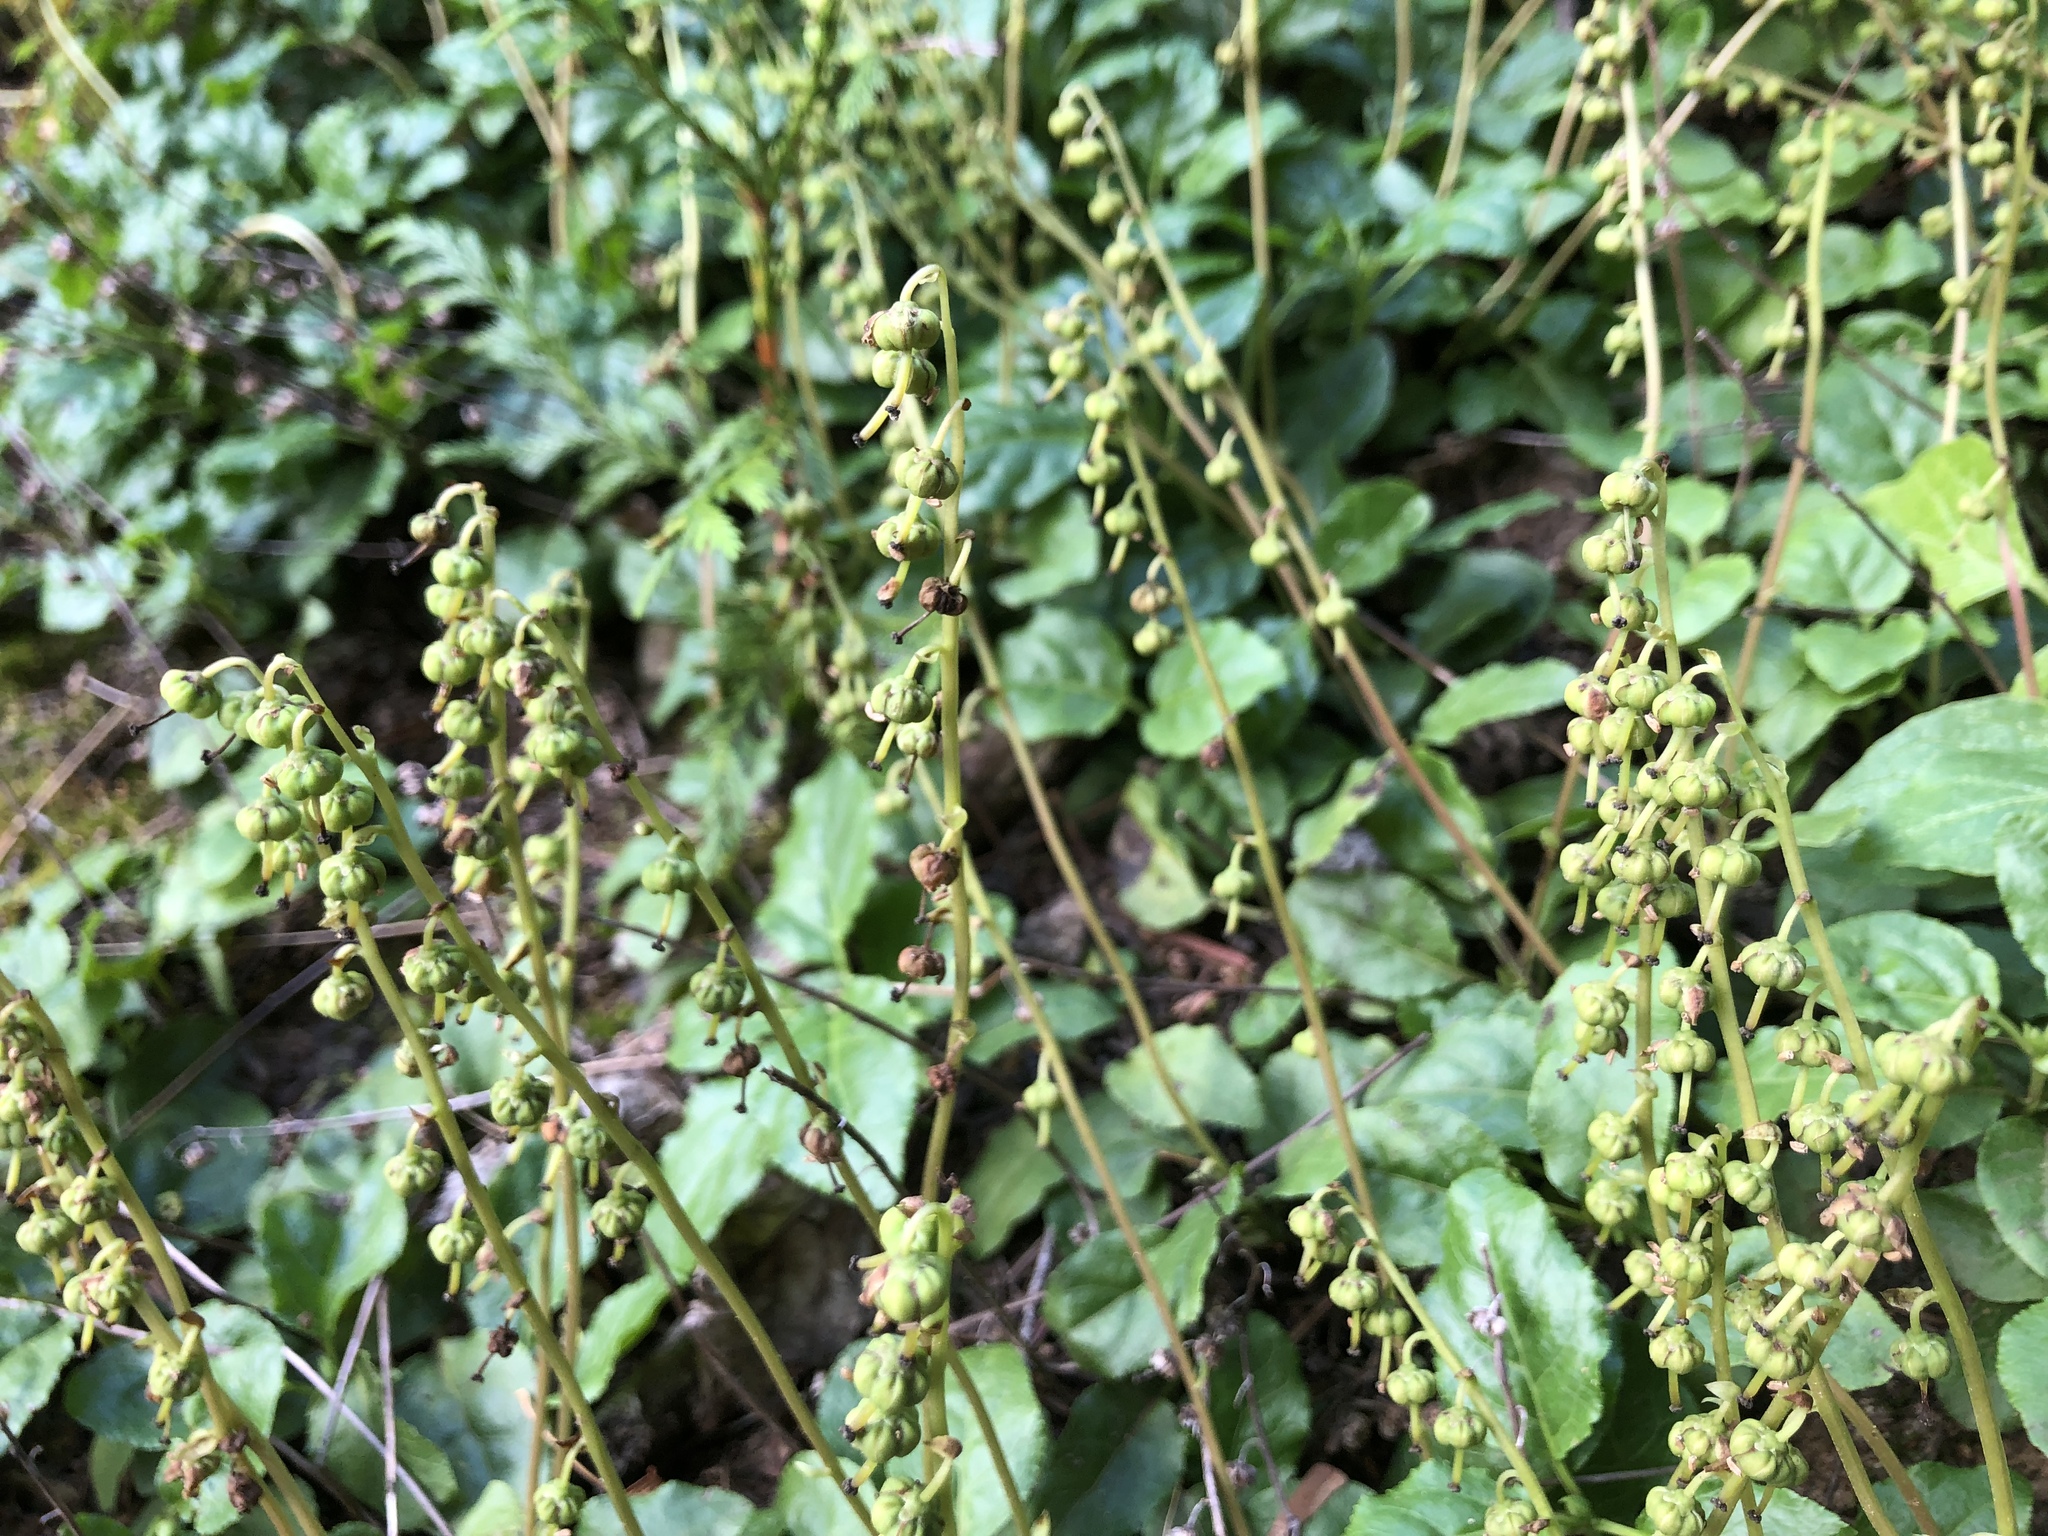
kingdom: Plantae
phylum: Tracheophyta
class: Magnoliopsida
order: Ericales
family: Ericaceae
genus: Orthilia
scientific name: Orthilia secunda
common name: One-sided orthilia
